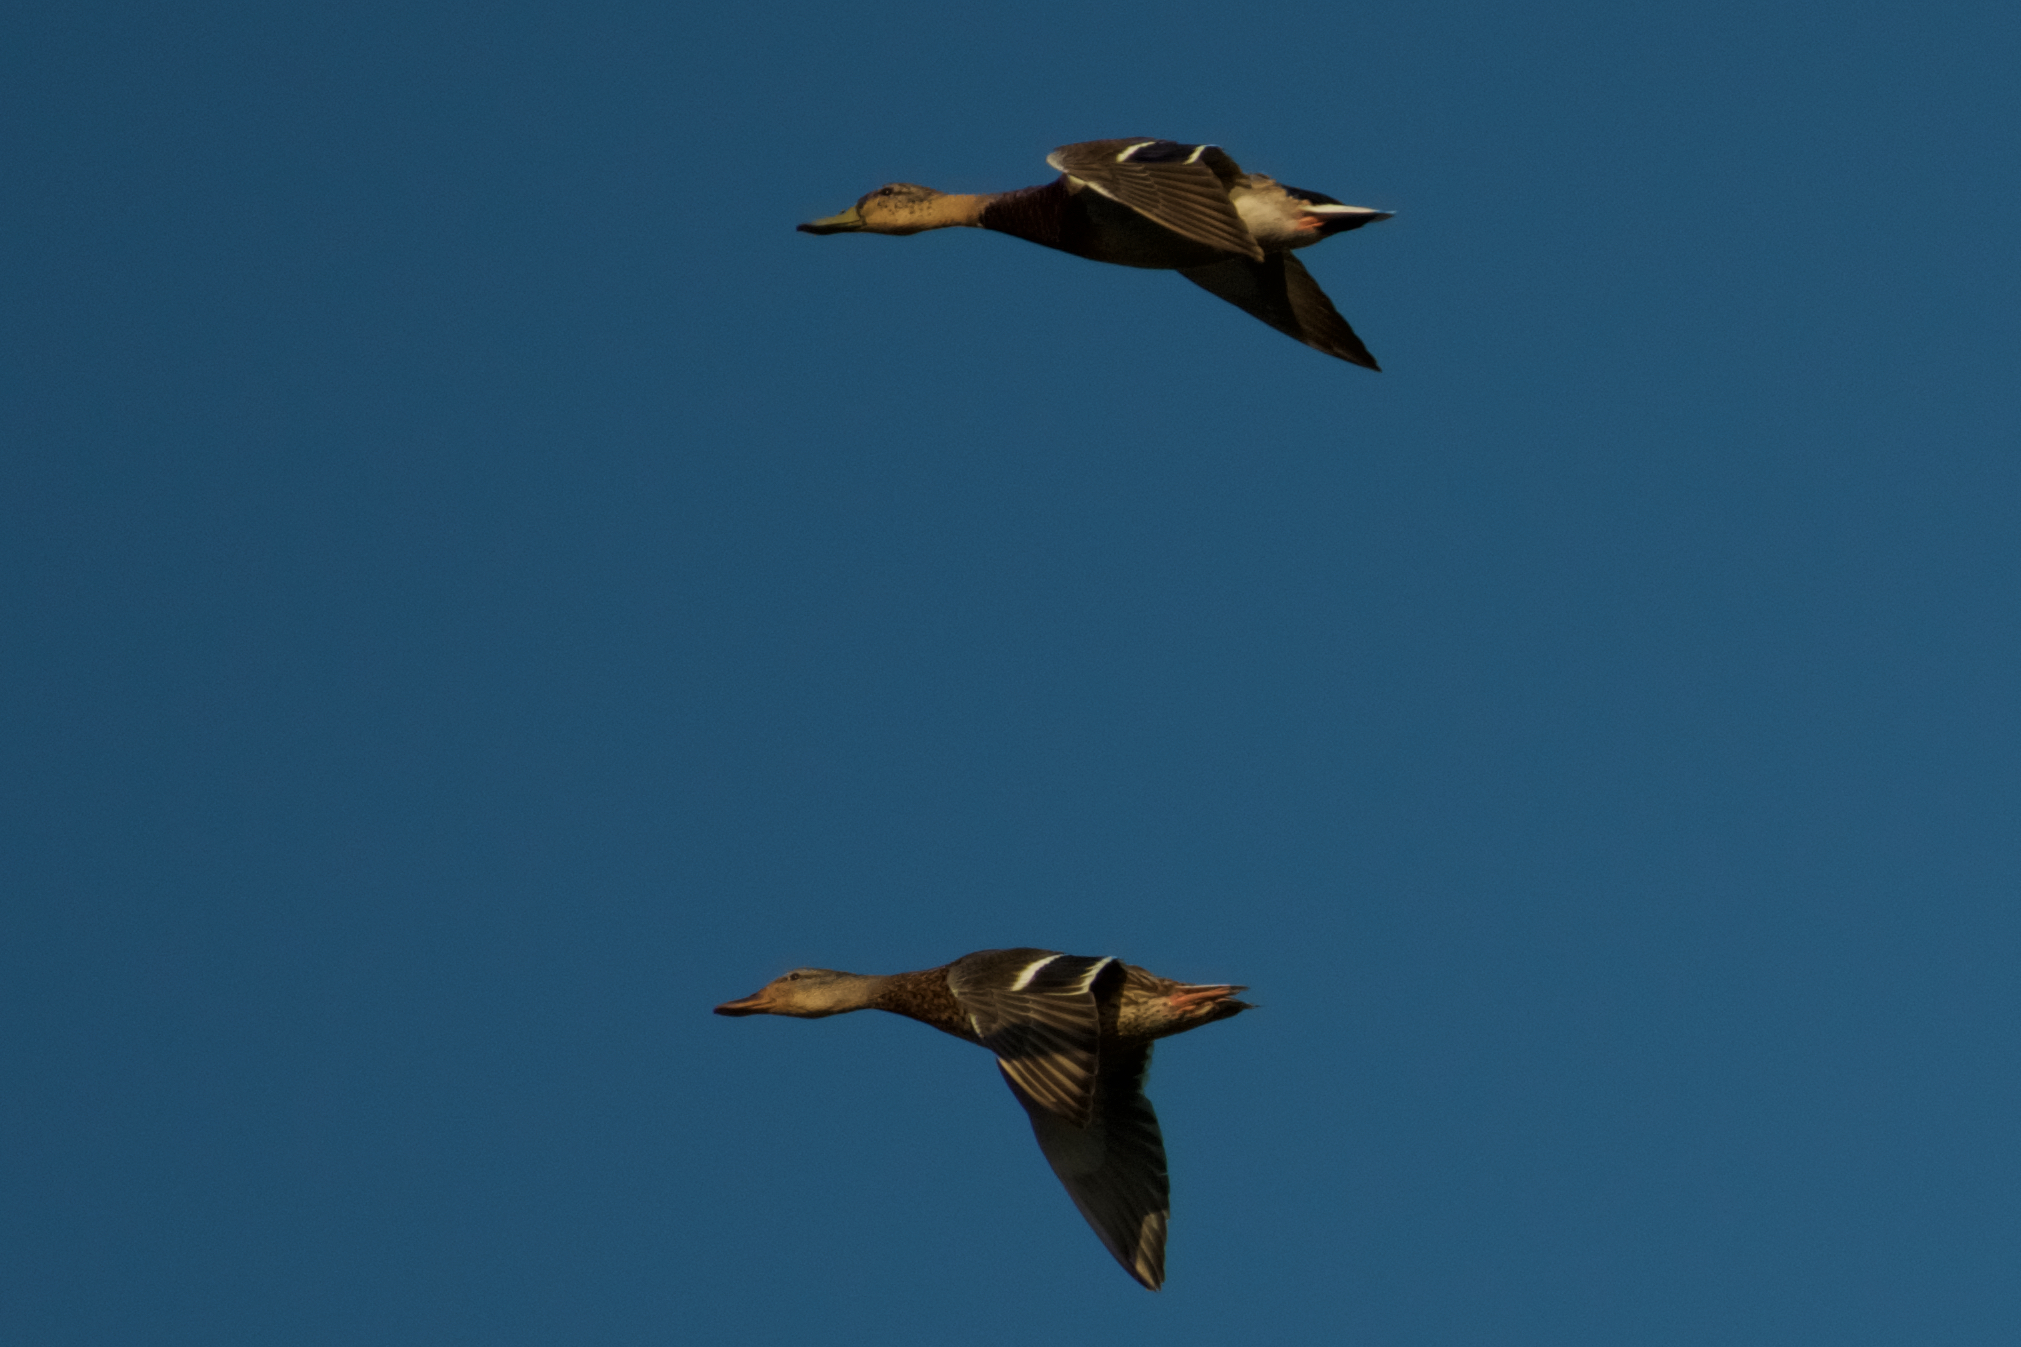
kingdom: Animalia
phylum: Chordata
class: Aves
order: Anseriformes
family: Anatidae
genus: Anas
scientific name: Anas platyrhynchos
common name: Mallard
